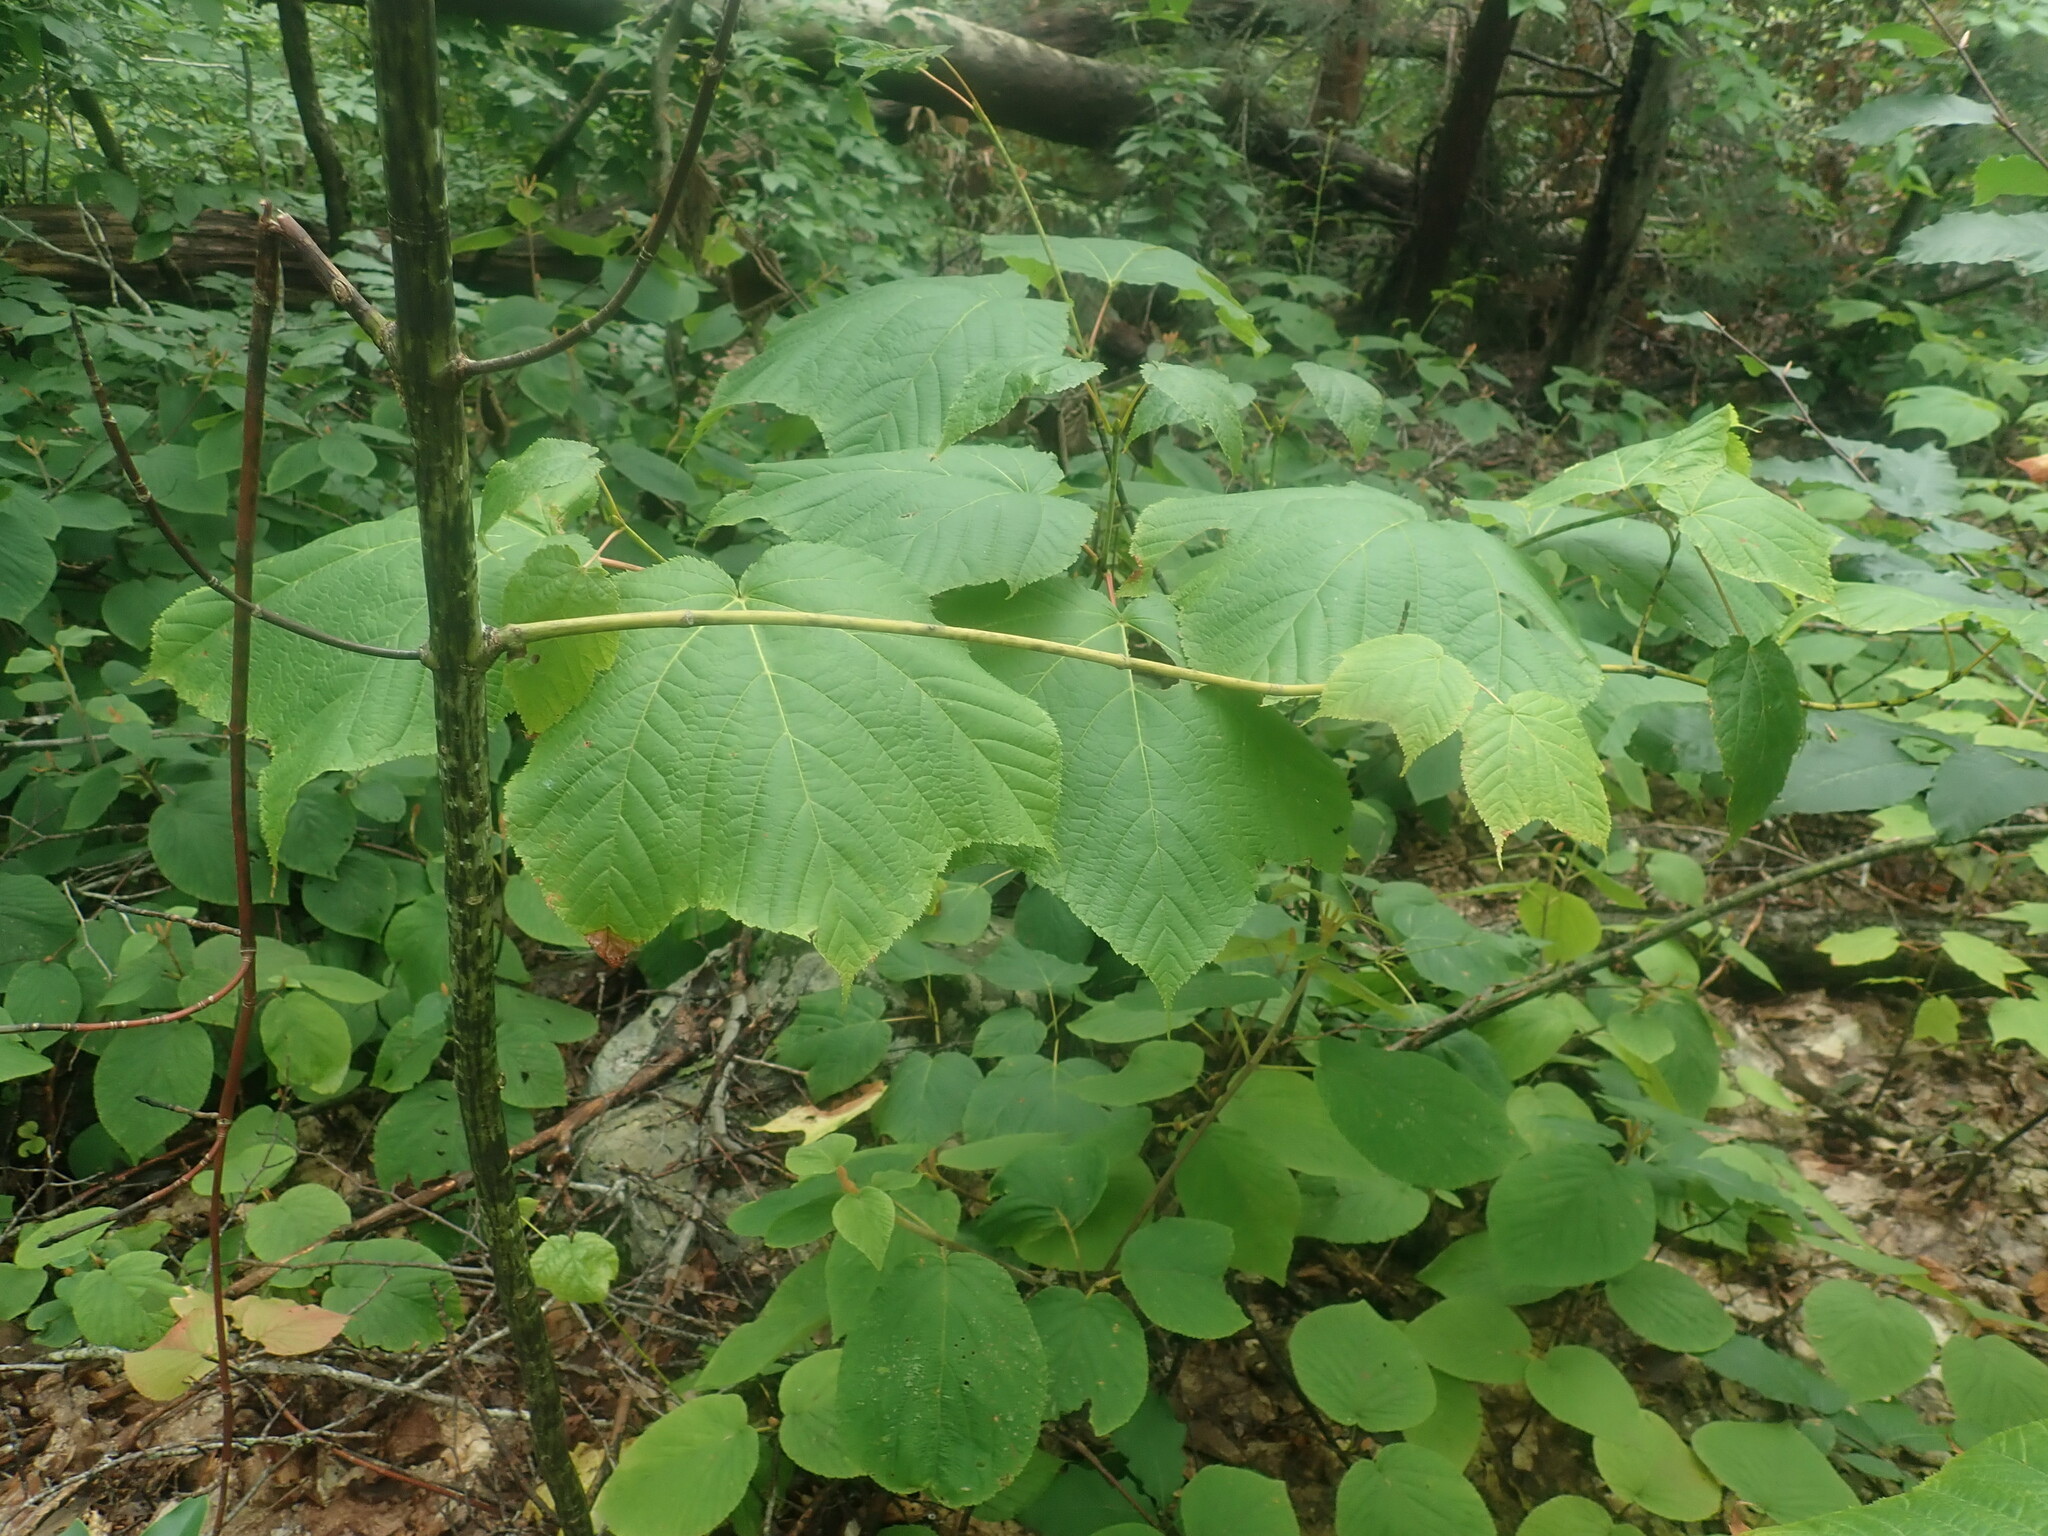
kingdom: Plantae
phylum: Tracheophyta
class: Magnoliopsida
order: Sapindales
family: Sapindaceae
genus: Acer
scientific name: Acer pensylvanicum
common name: Moosewood
